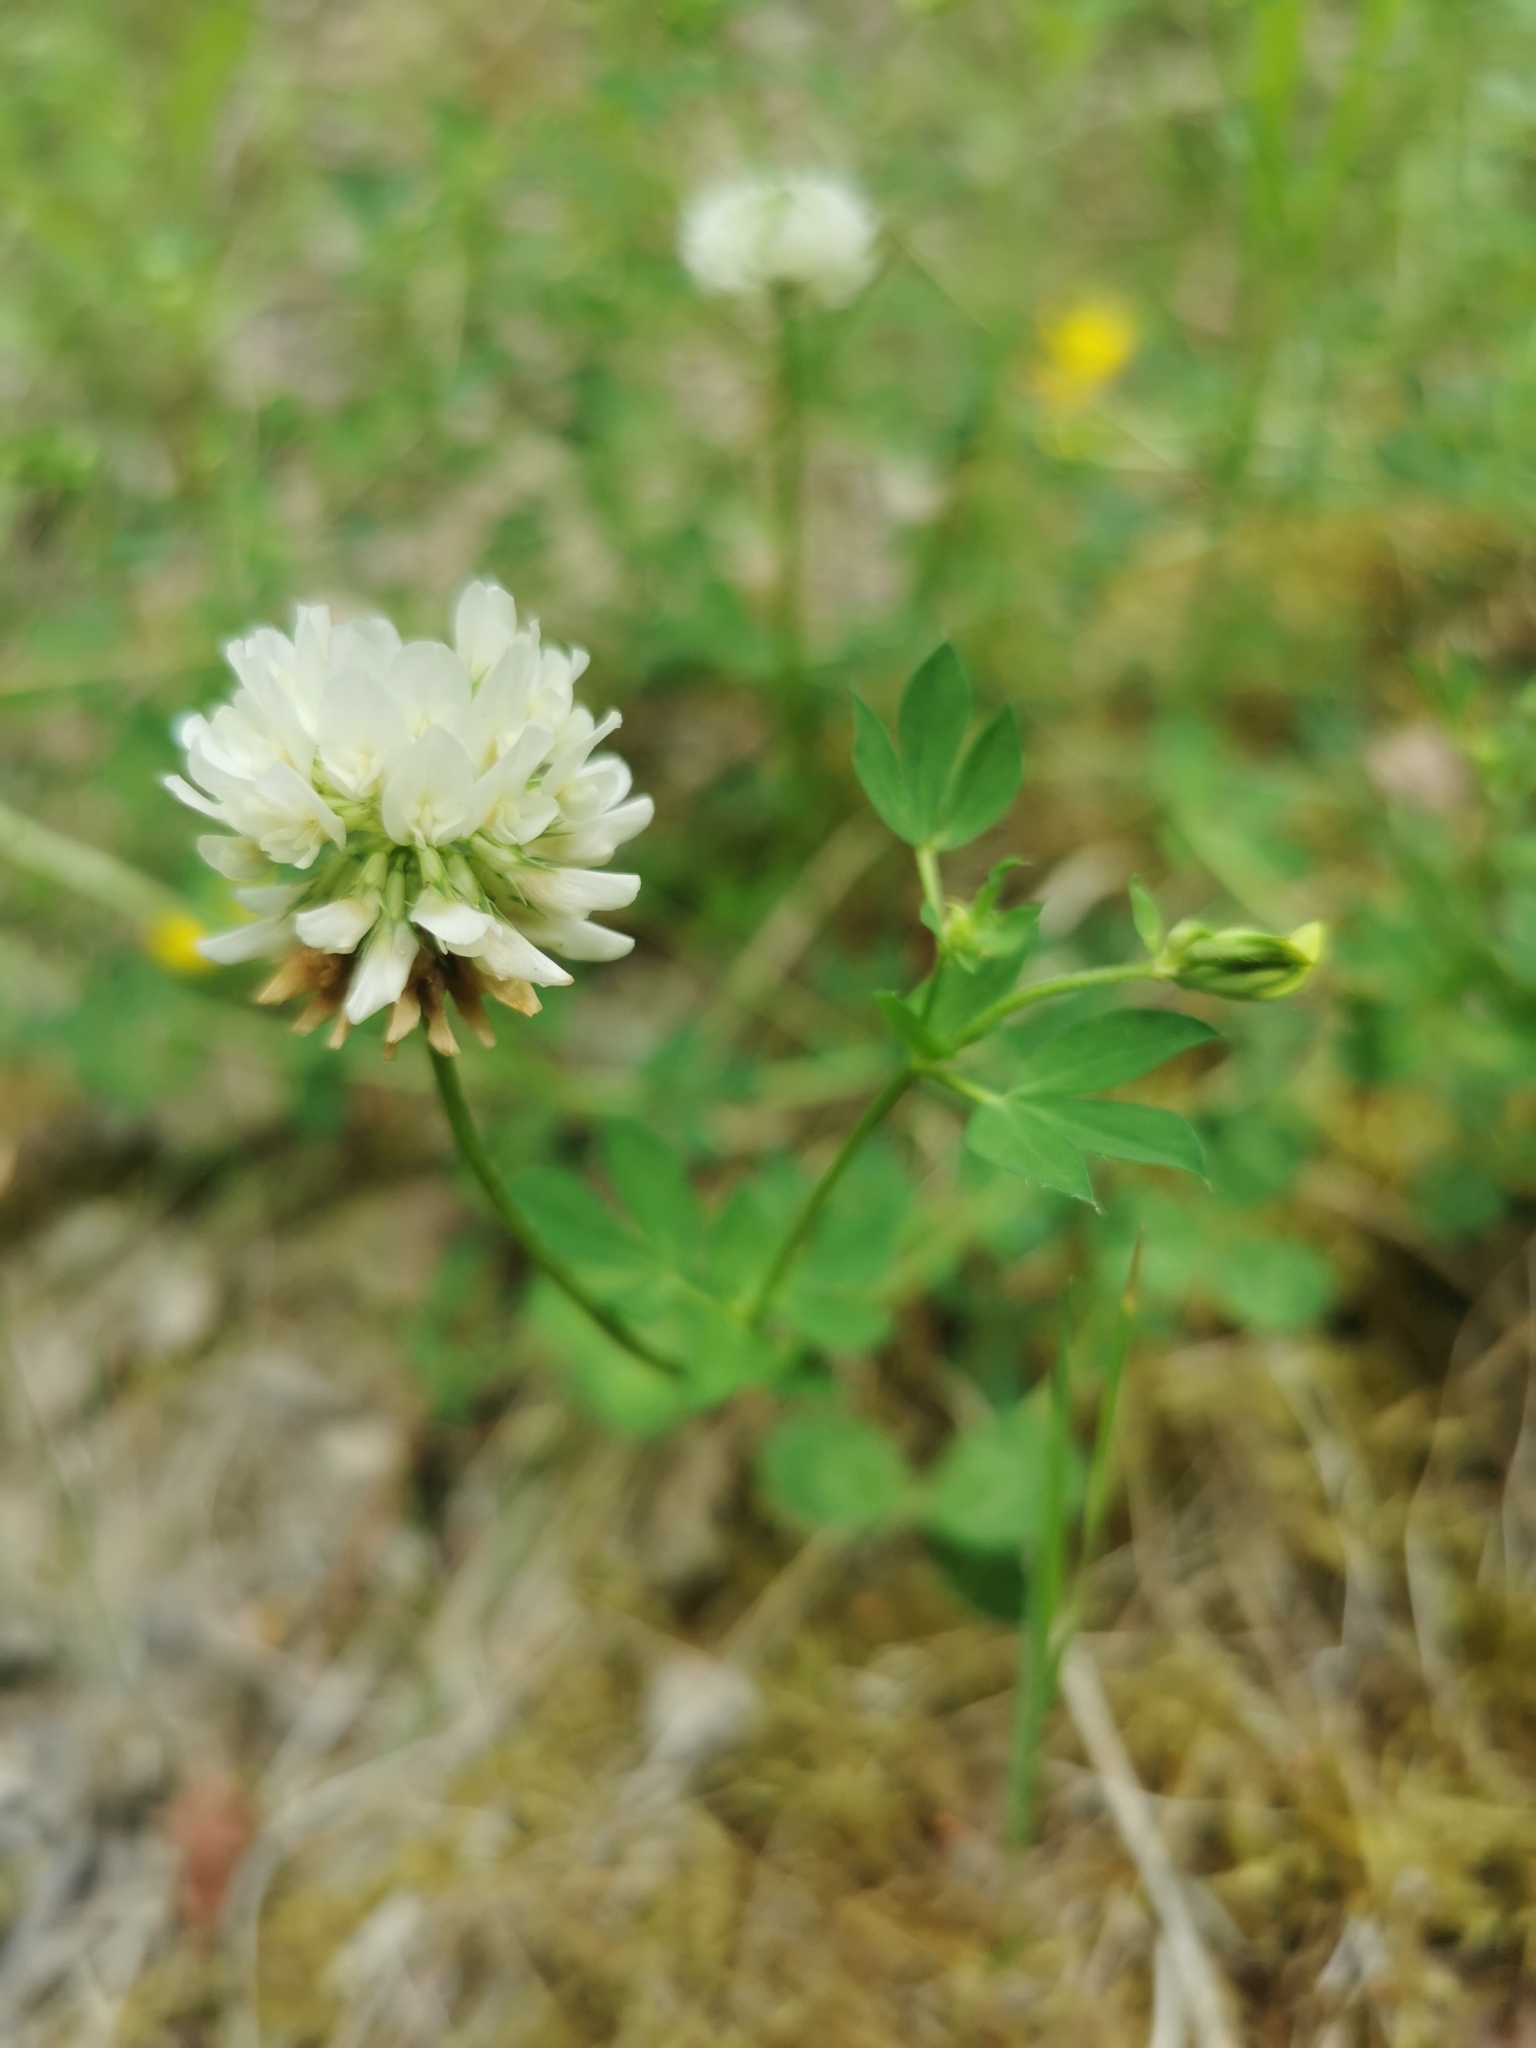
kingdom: Plantae
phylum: Tracheophyta
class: Magnoliopsida
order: Fabales
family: Fabaceae
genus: Trifolium
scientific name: Trifolium repens
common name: White clover
